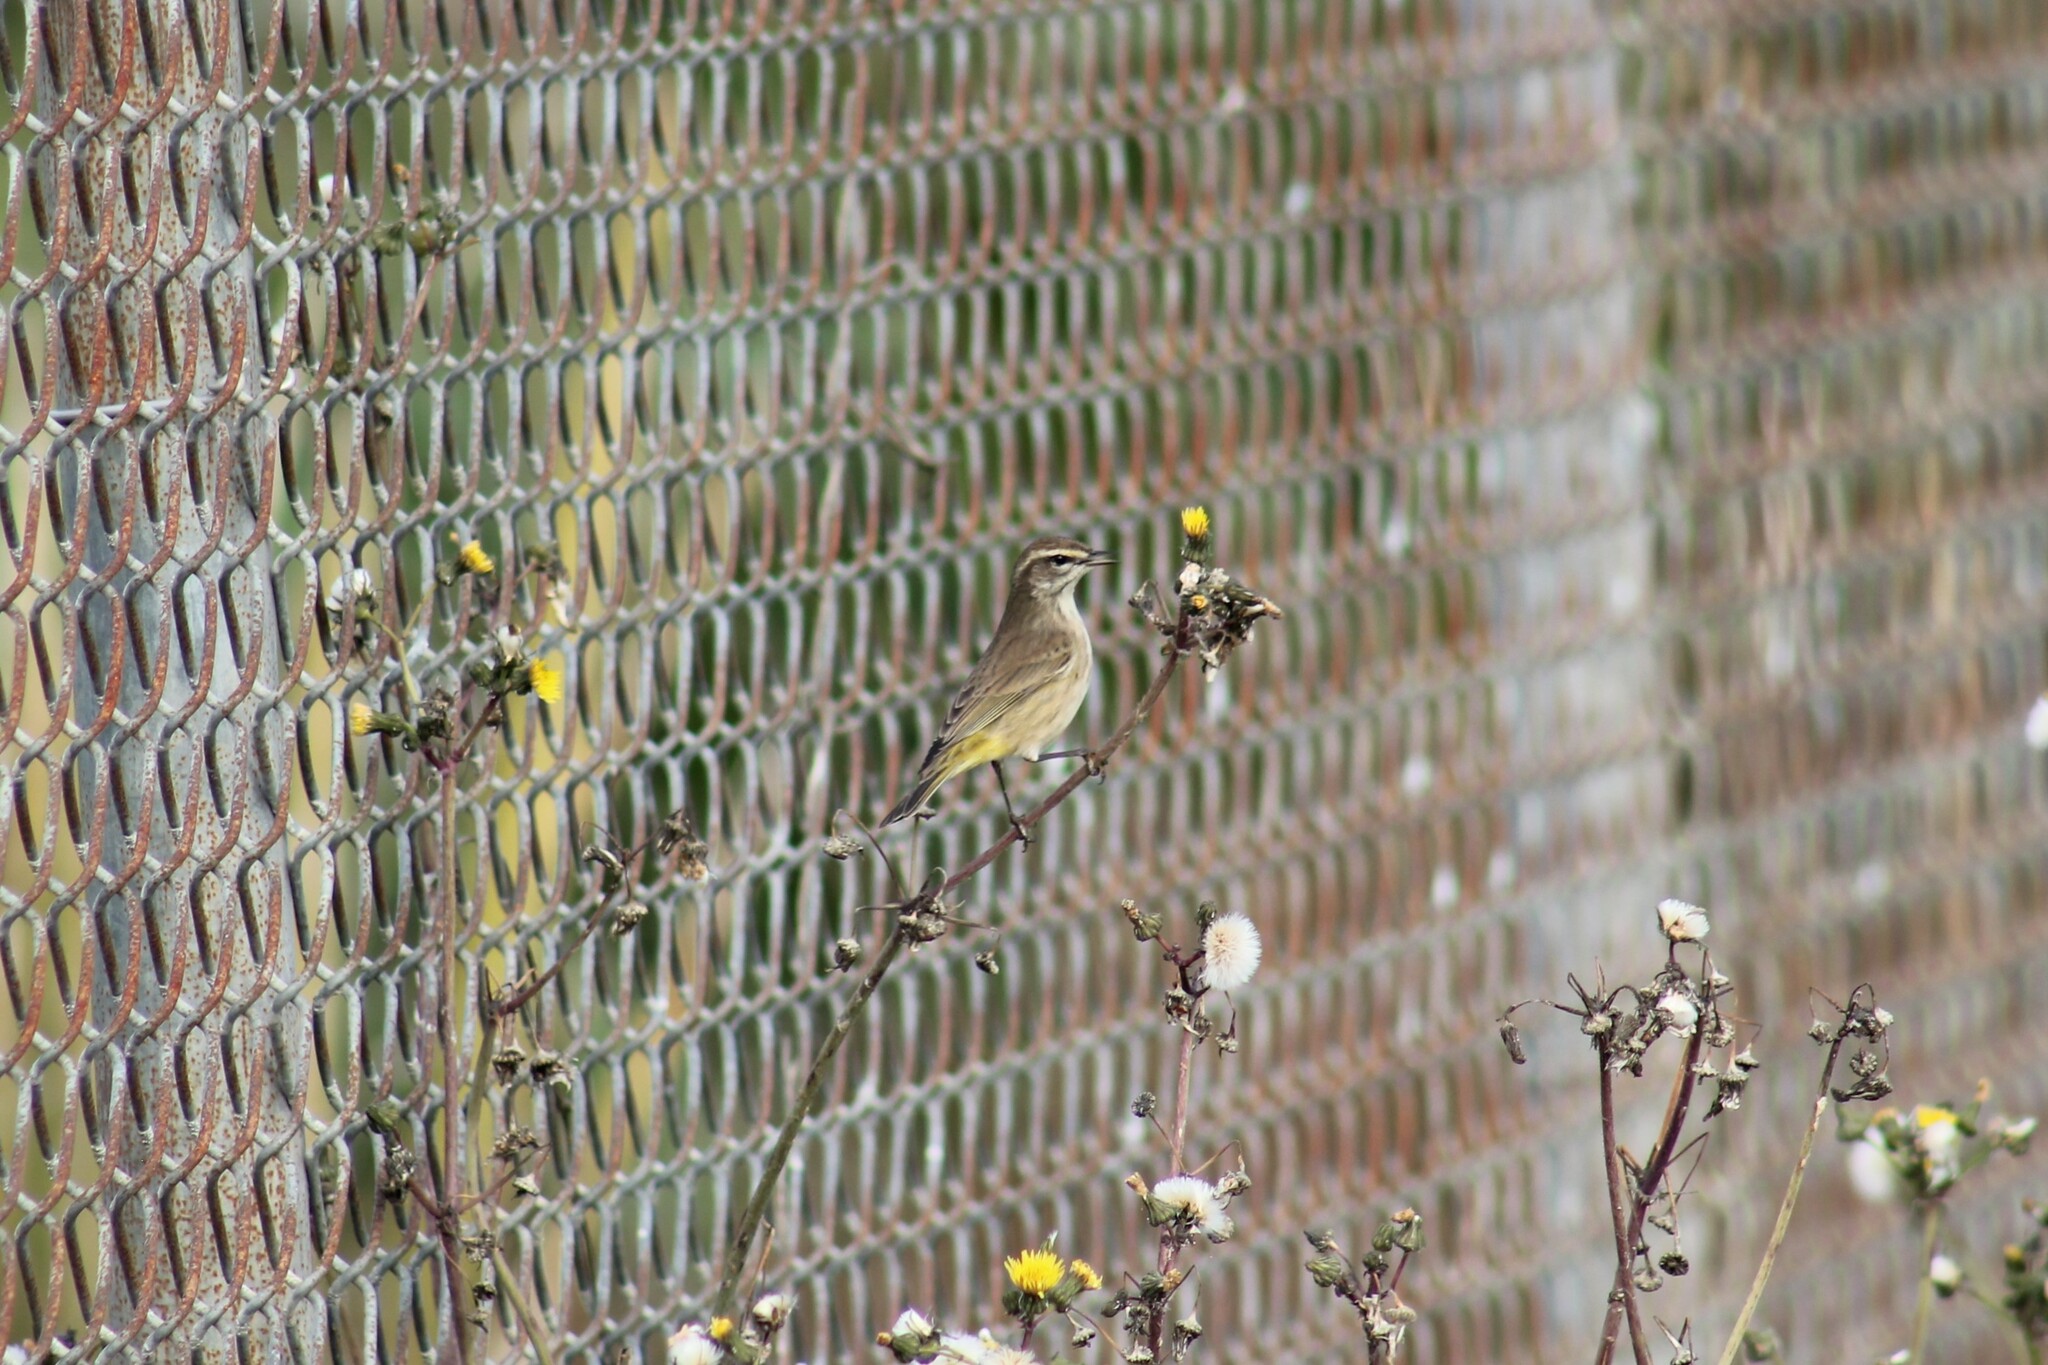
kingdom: Animalia
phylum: Chordata
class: Aves
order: Passeriformes
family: Parulidae
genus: Setophaga
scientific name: Setophaga palmarum
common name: Palm warbler
